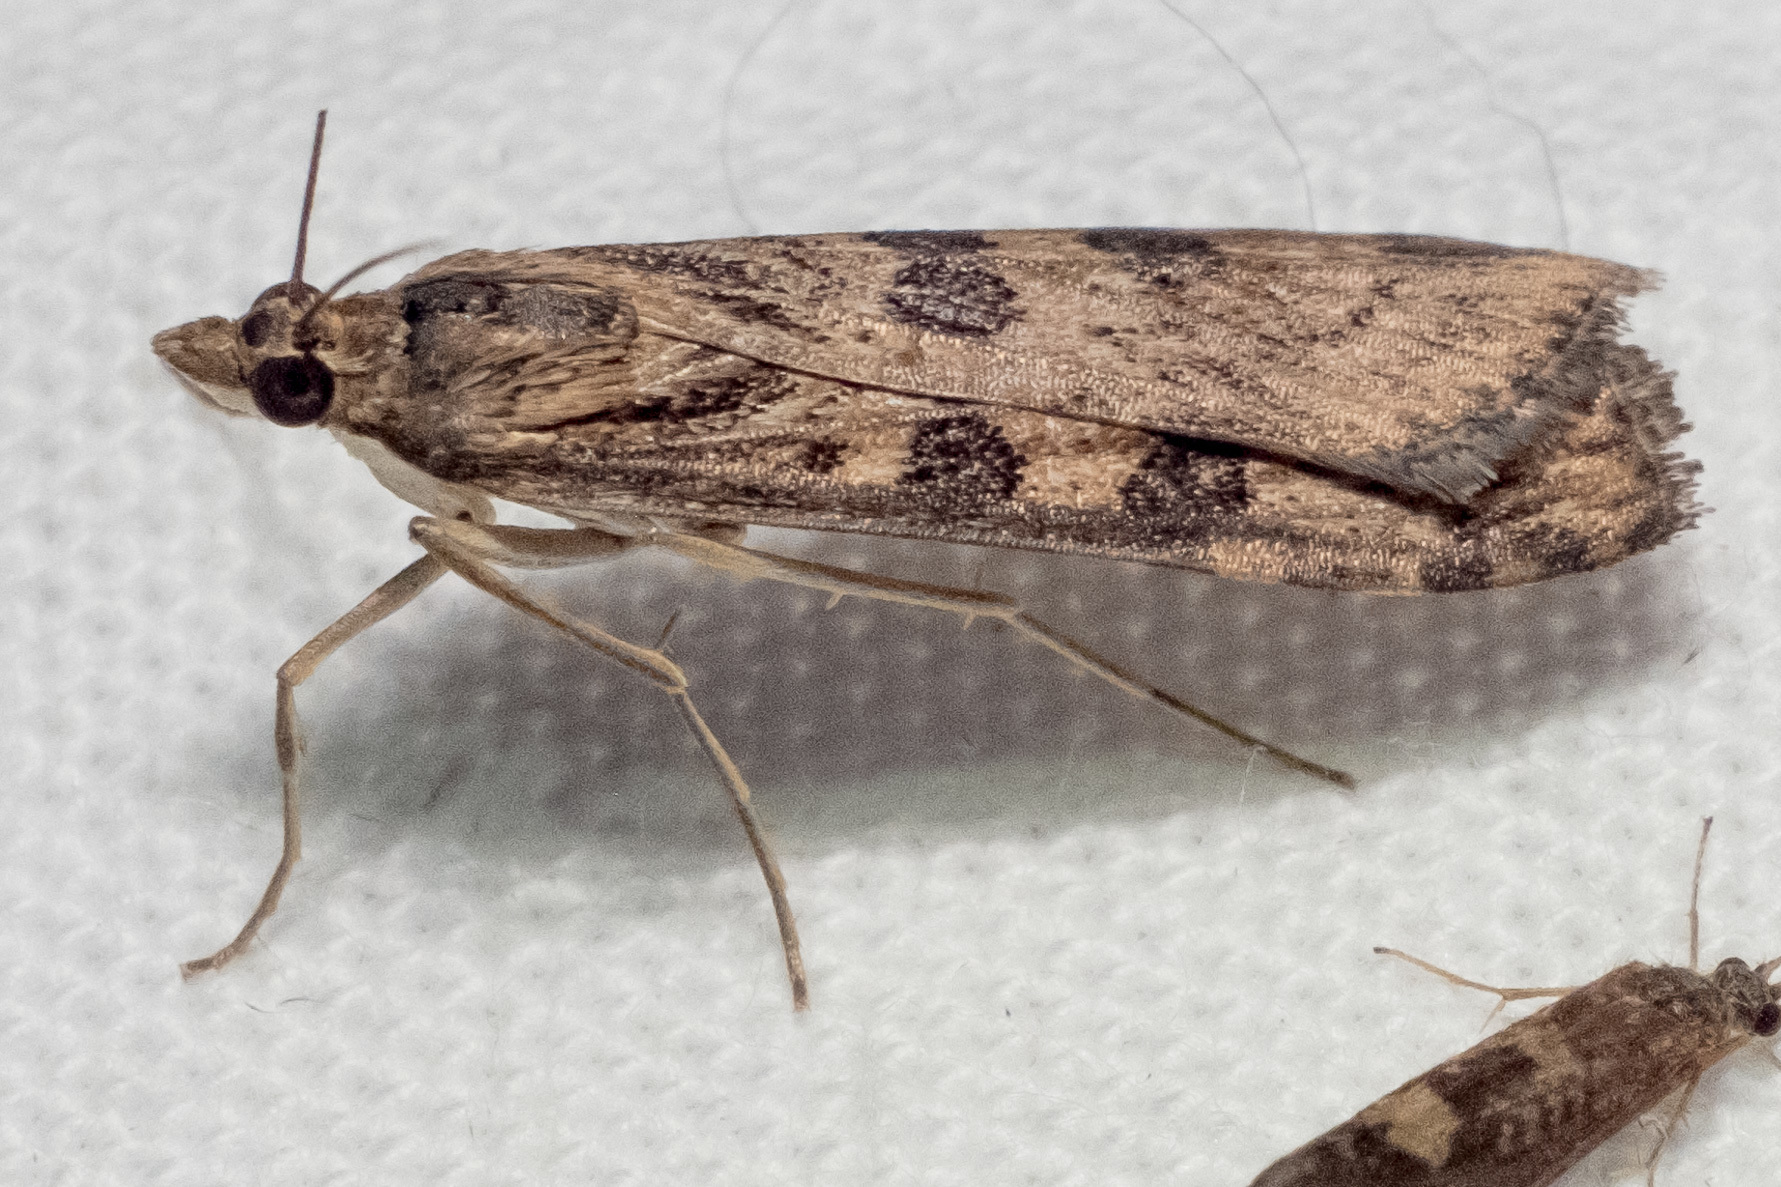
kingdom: Animalia
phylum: Arthropoda
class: Insecta
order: Lepidoptera
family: Crambidae
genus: Nomophila
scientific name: Nomophila nearctica
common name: American rush veneer
